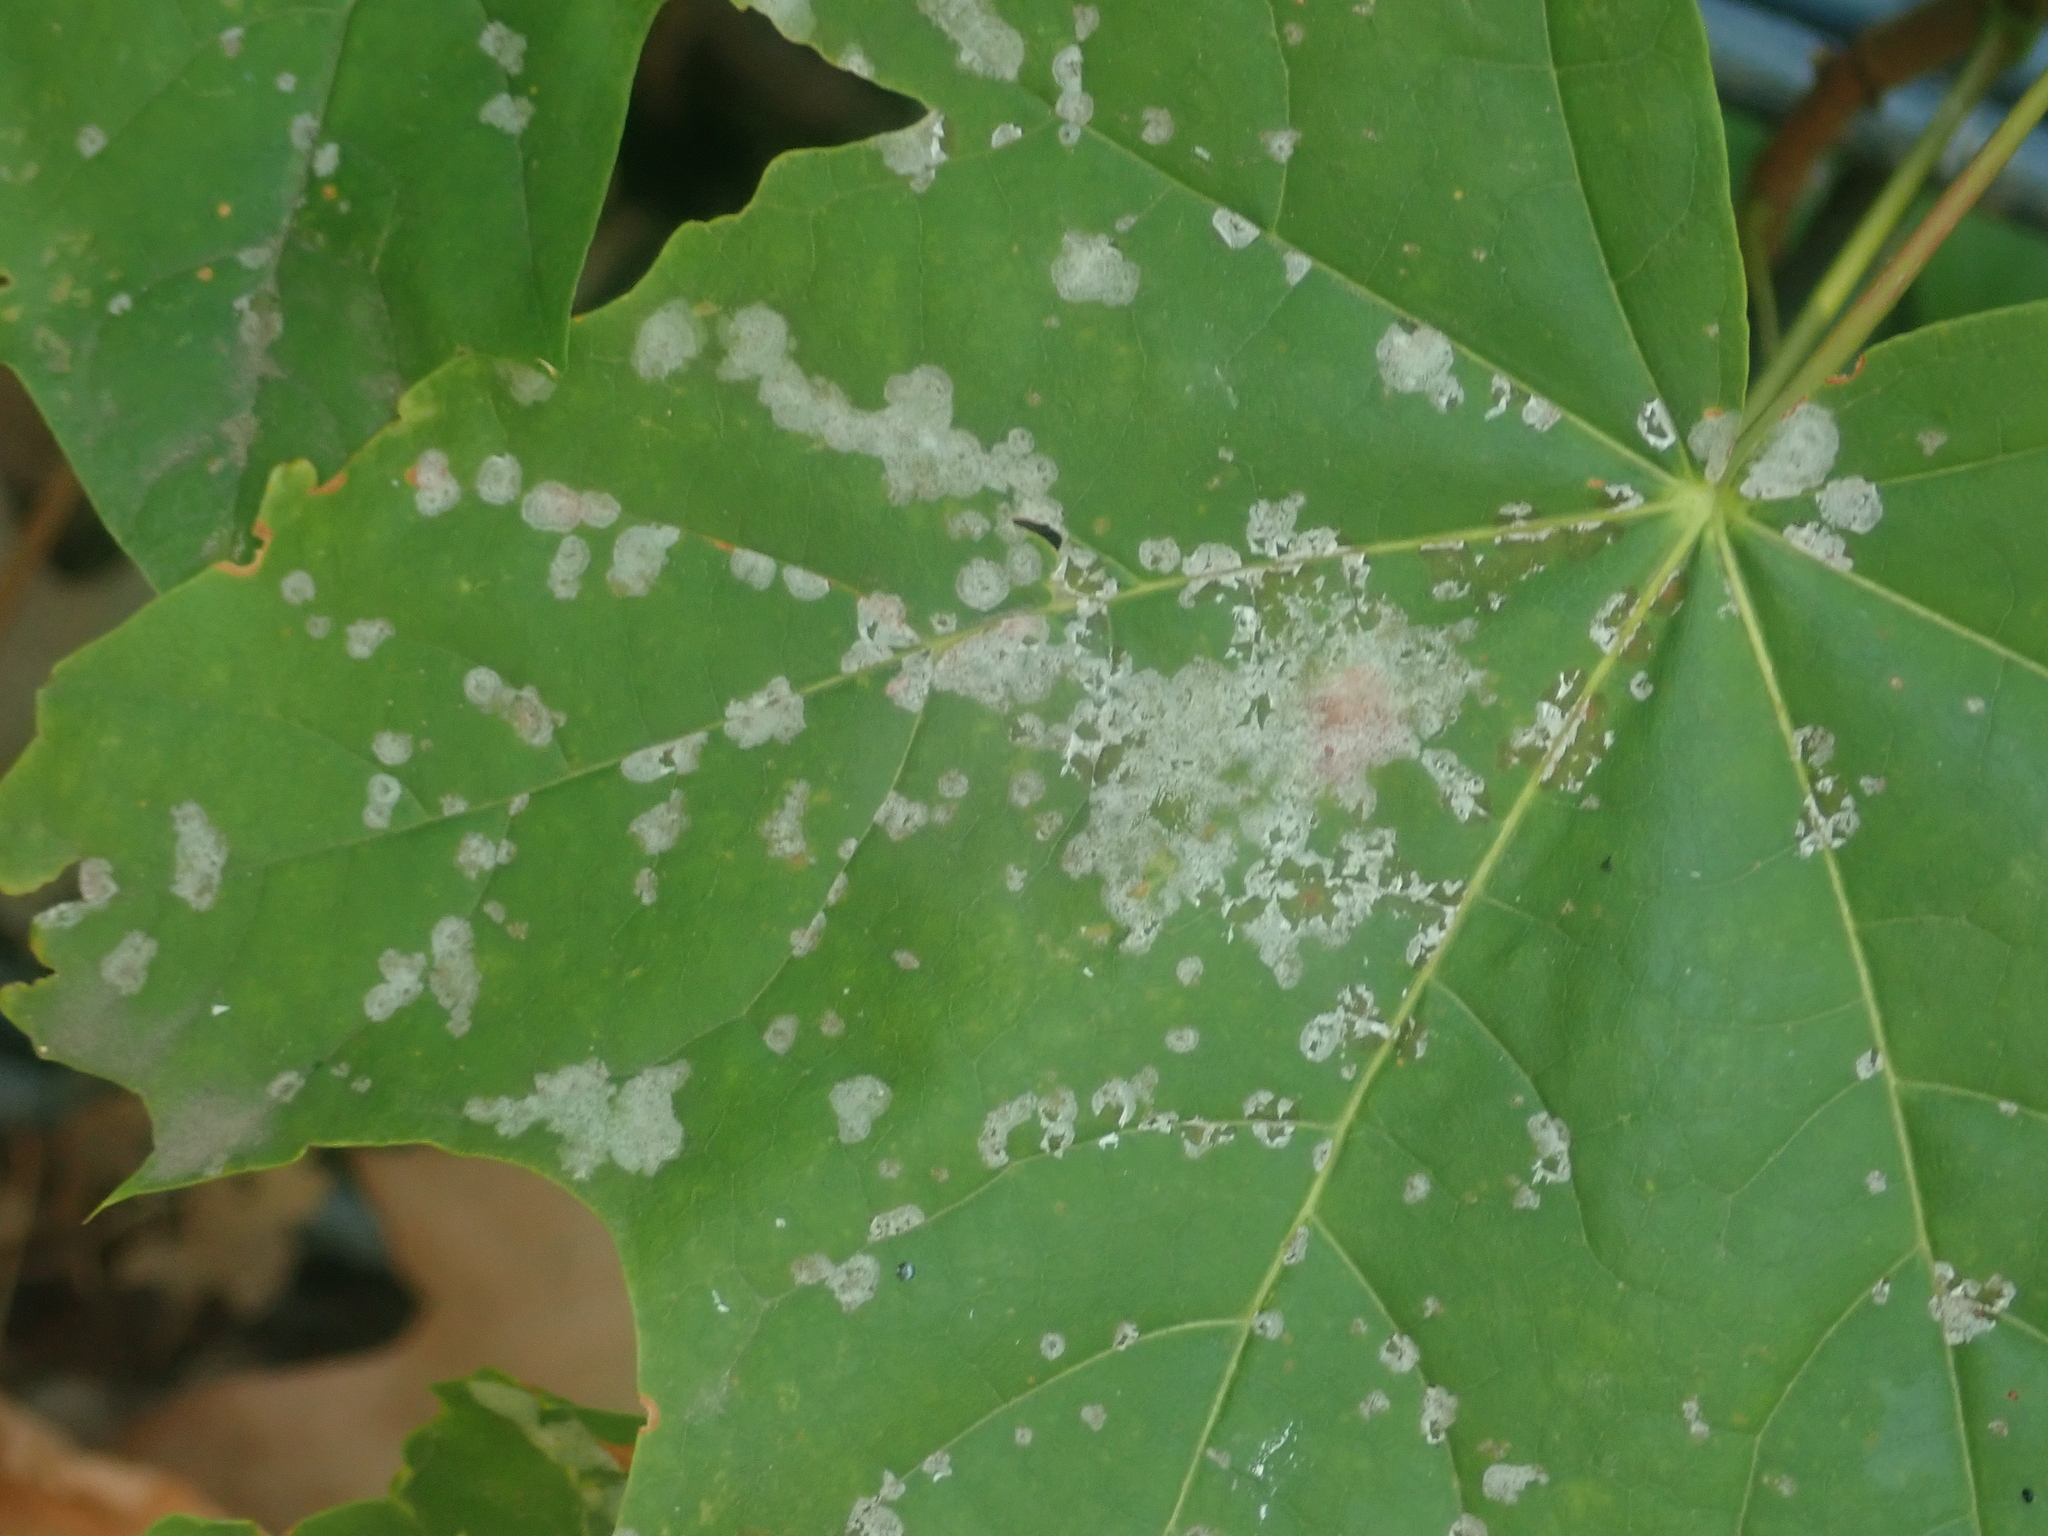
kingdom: Fungi
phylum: Ascomycota
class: Leotiomycetes
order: Helotiales
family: Erysiphaceae
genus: Sawadaea
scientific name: Sawadaea tulasnei
